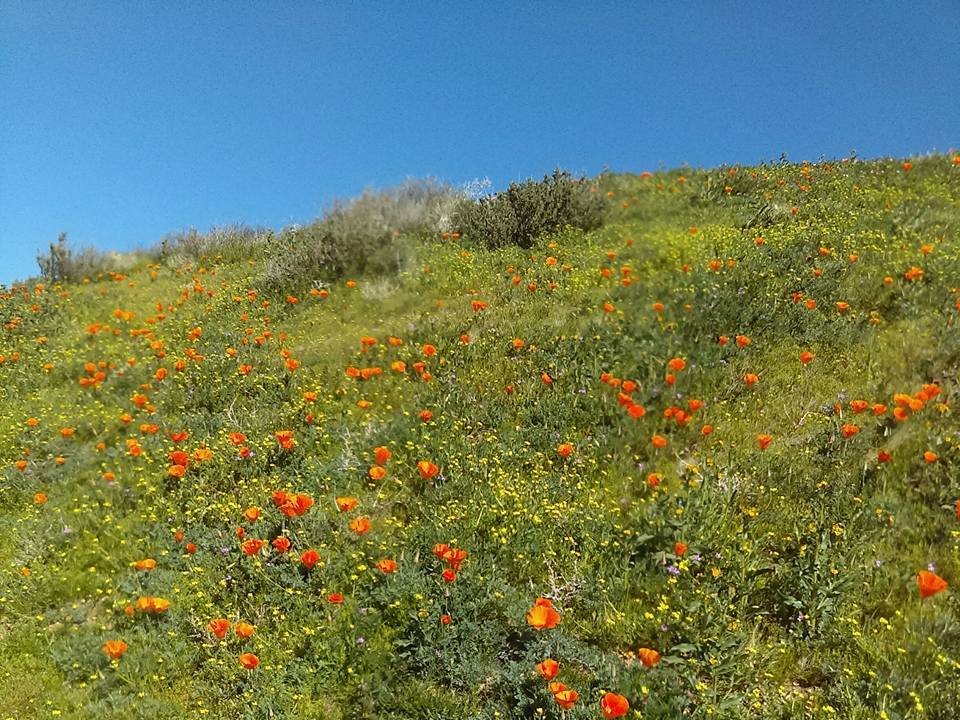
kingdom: Plantae
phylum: Tracheophyta
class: Magnoliopsida
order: Ranunculales
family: Papaveraceae
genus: Eschscholzia
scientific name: Eschscholzia californica
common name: California poppy
